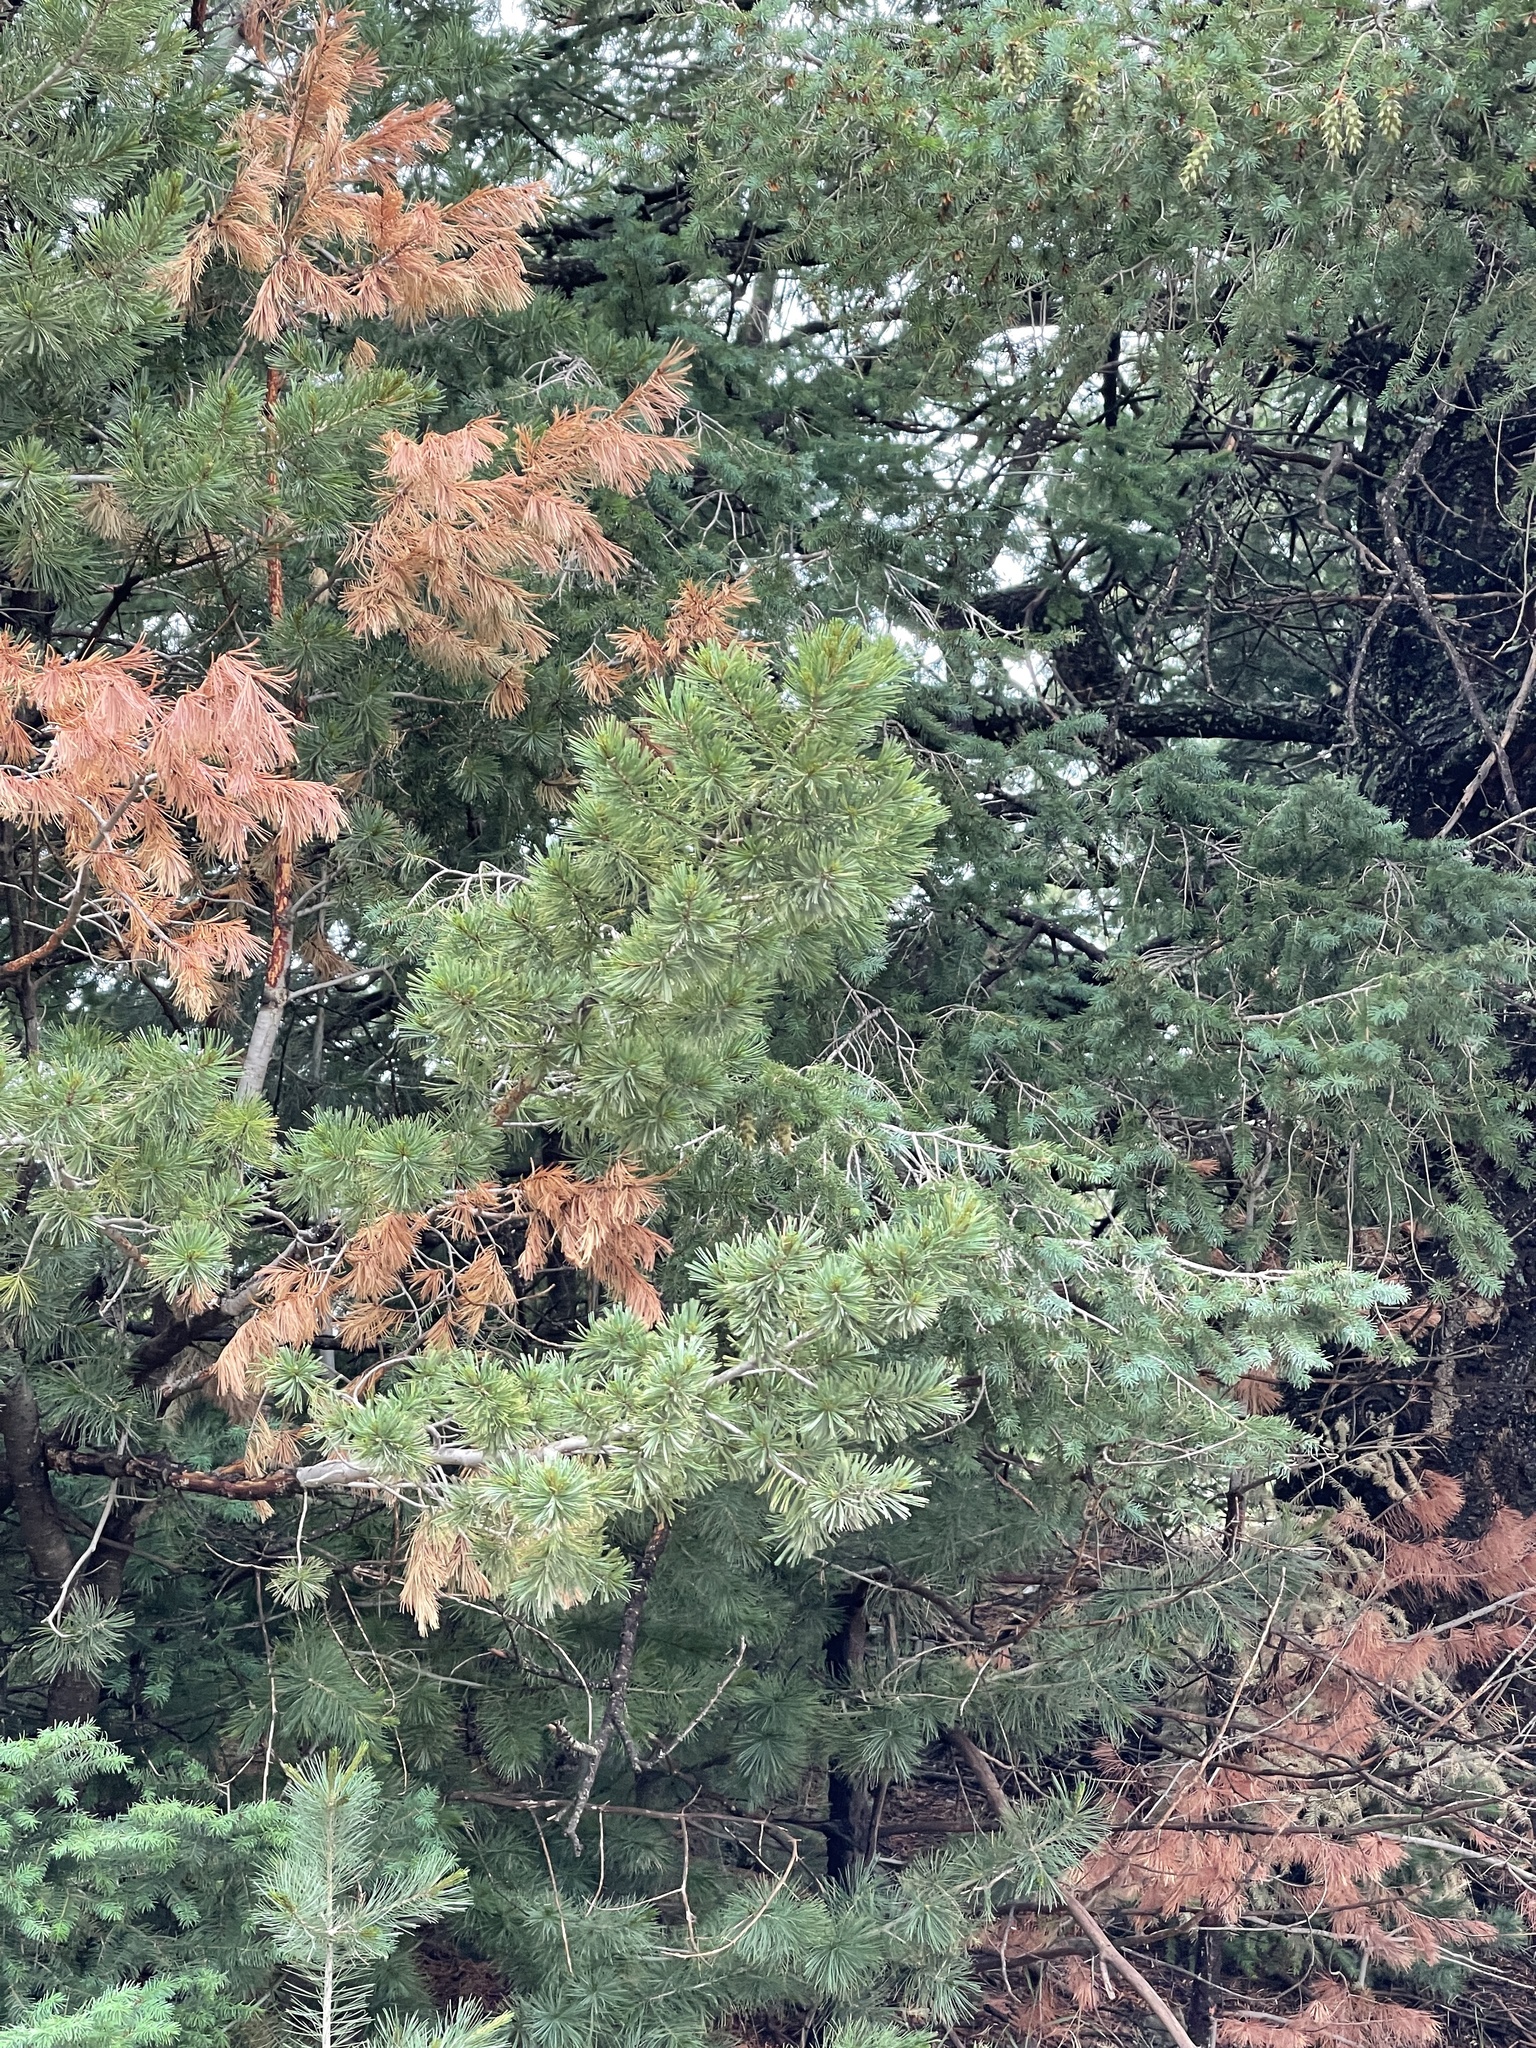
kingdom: Plantae
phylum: Tracheophyta
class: Pinopsida
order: Pinales
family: Pinaceae
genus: Pinus
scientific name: Pinus strobiformis
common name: Southwestern white pine
